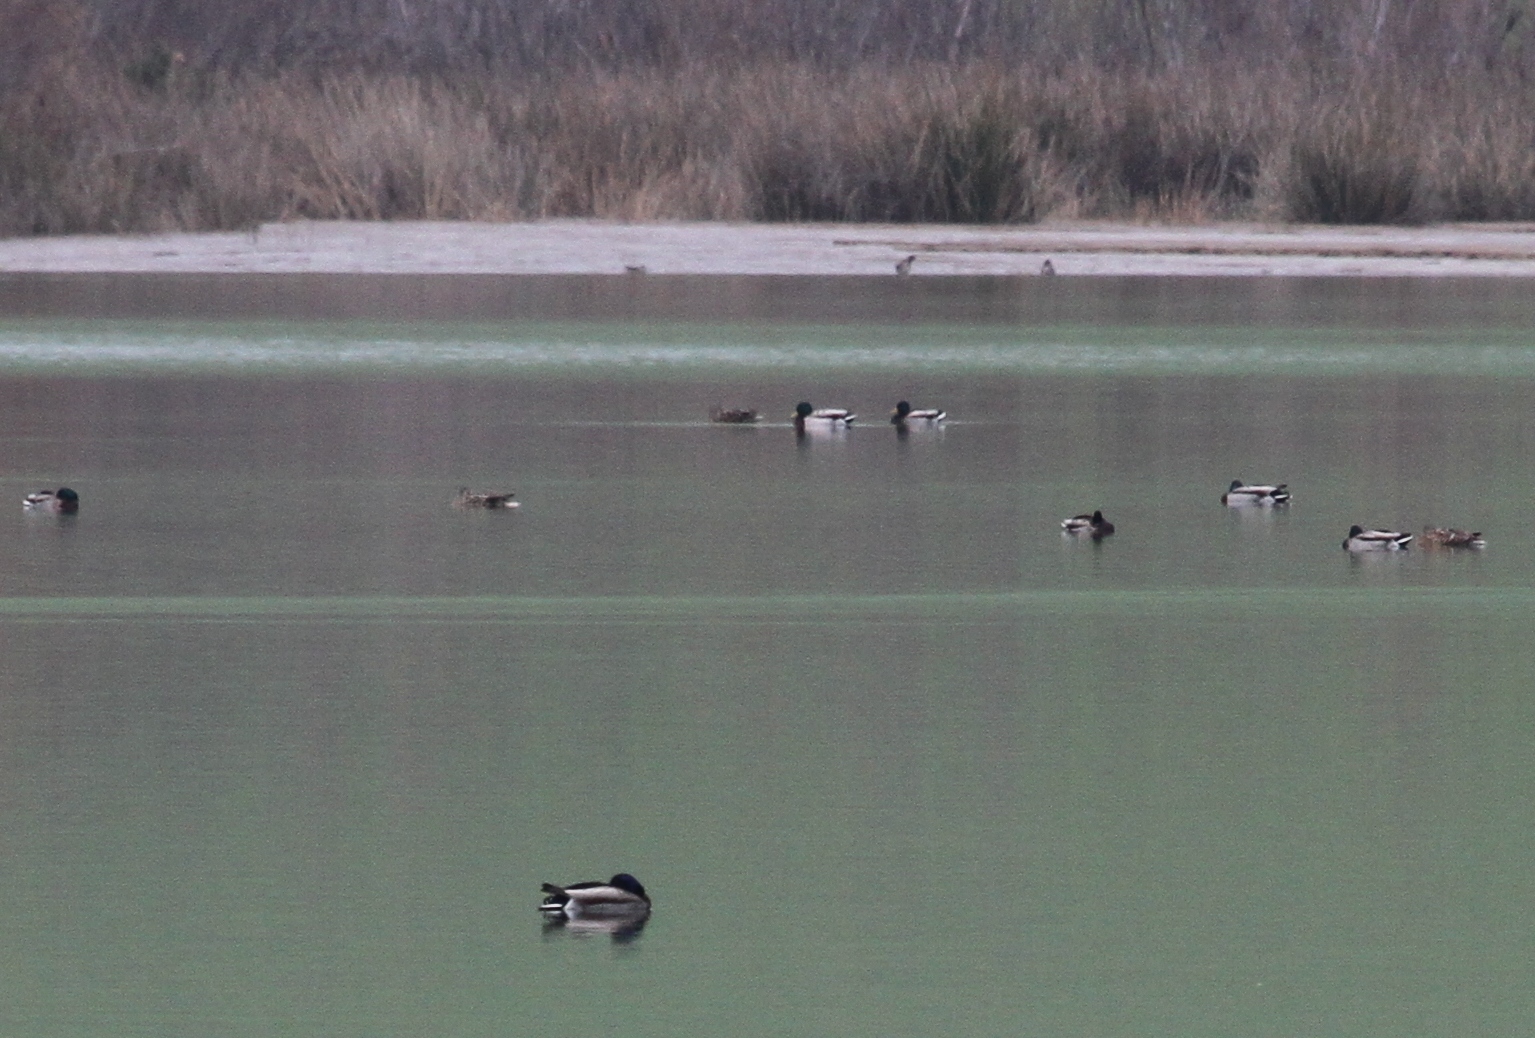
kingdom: Animalia
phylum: Chordata
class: Aves
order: Anseriformes
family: Anatidae
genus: Anas
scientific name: Anas platyrhynchos
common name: Mallard
